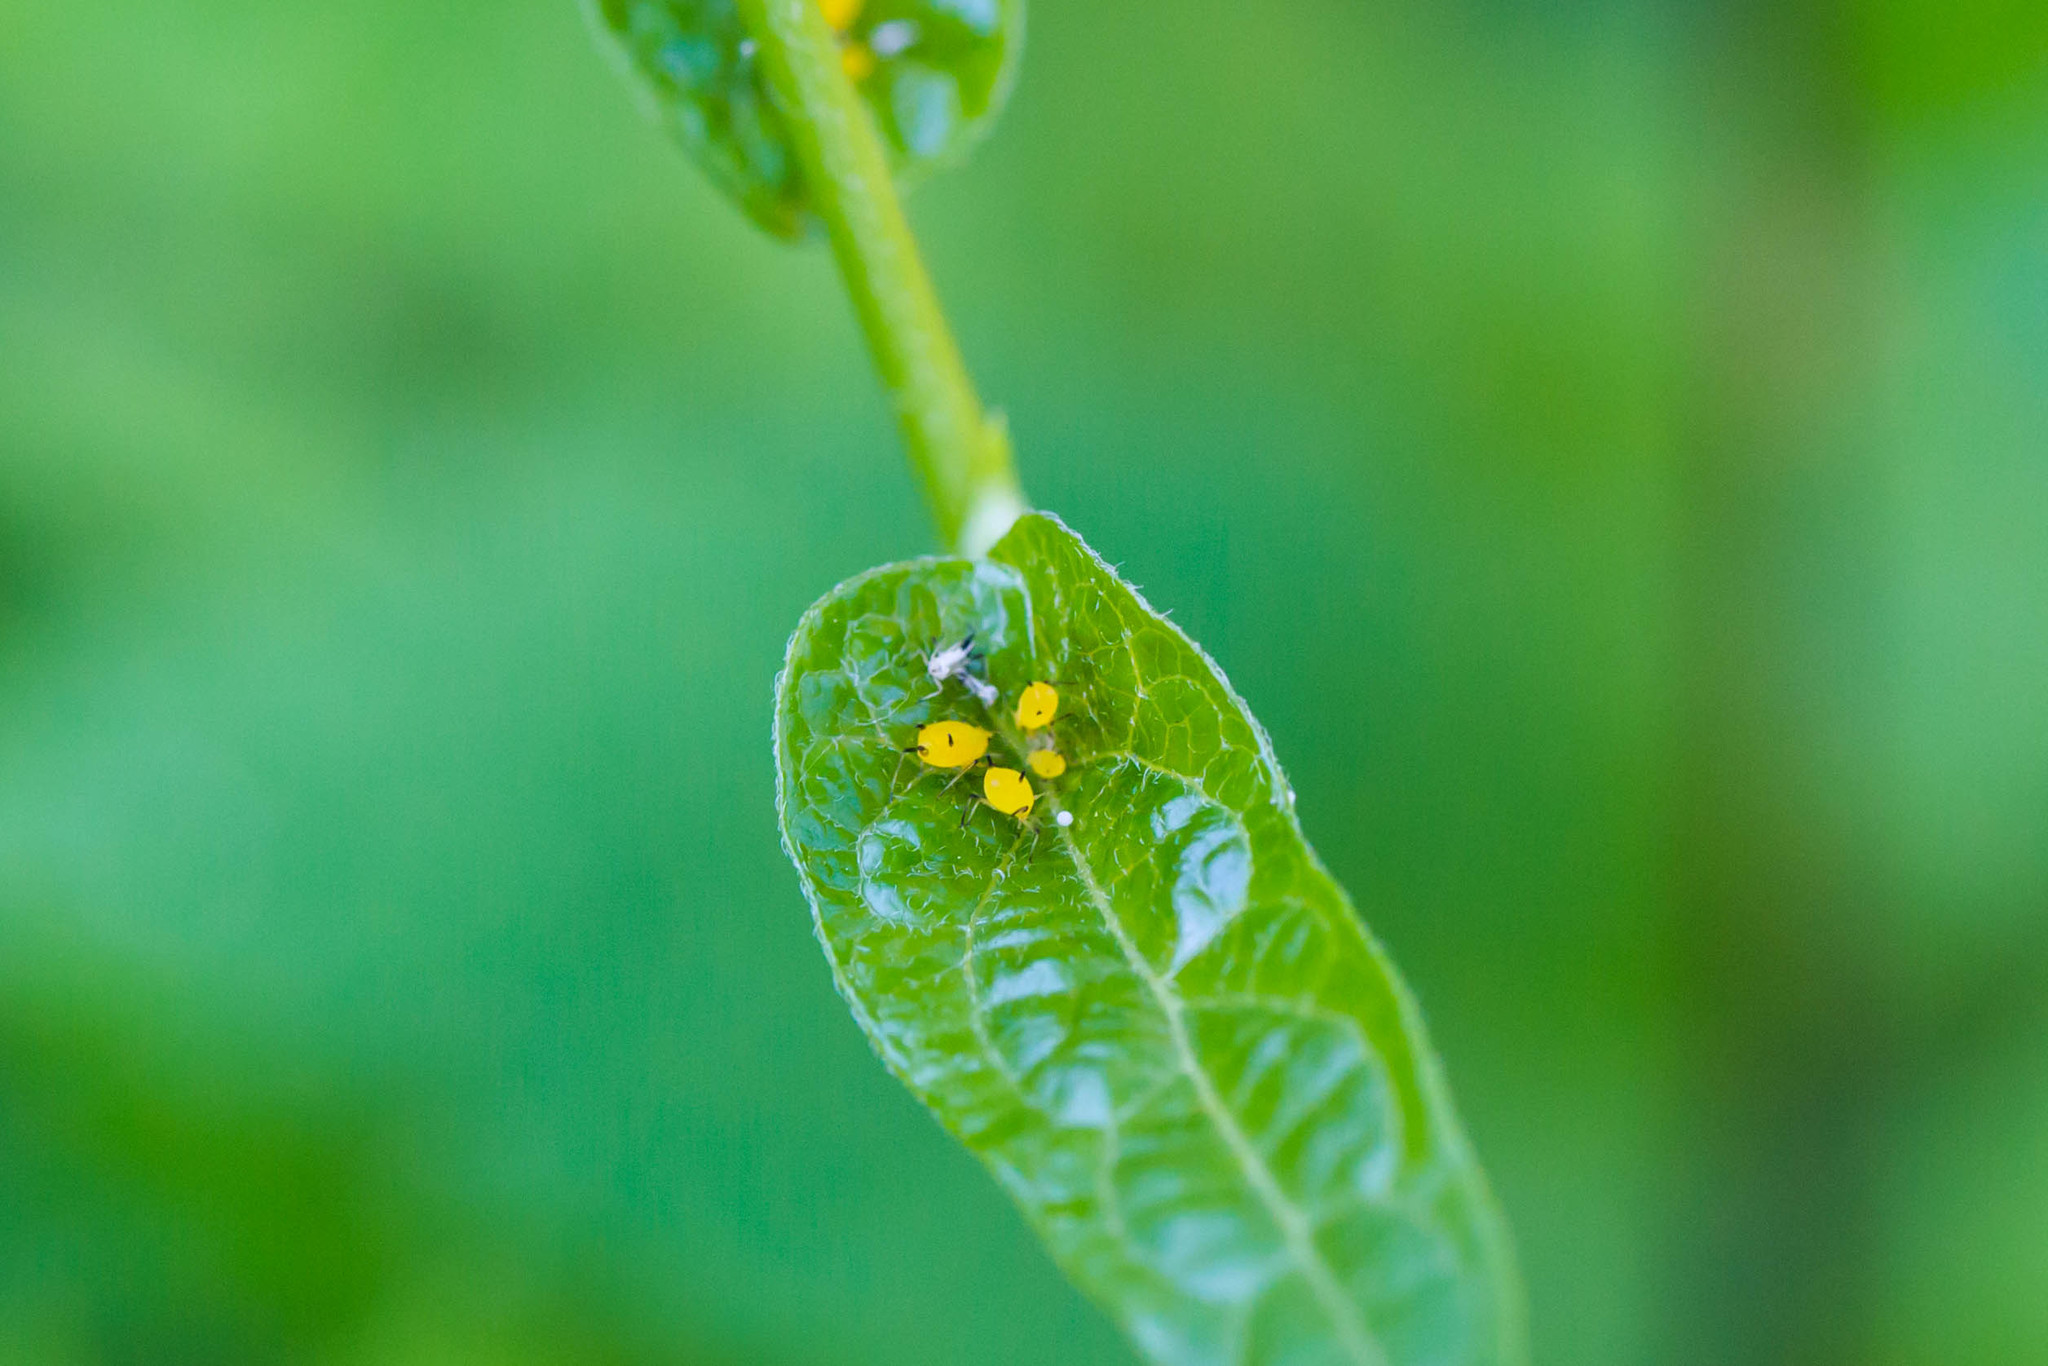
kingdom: Animalia
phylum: Arthropoda
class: Insecta
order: Hemiptera
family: Aphididae
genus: Aphis
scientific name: Aphis nerii
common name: Oleander aphid
